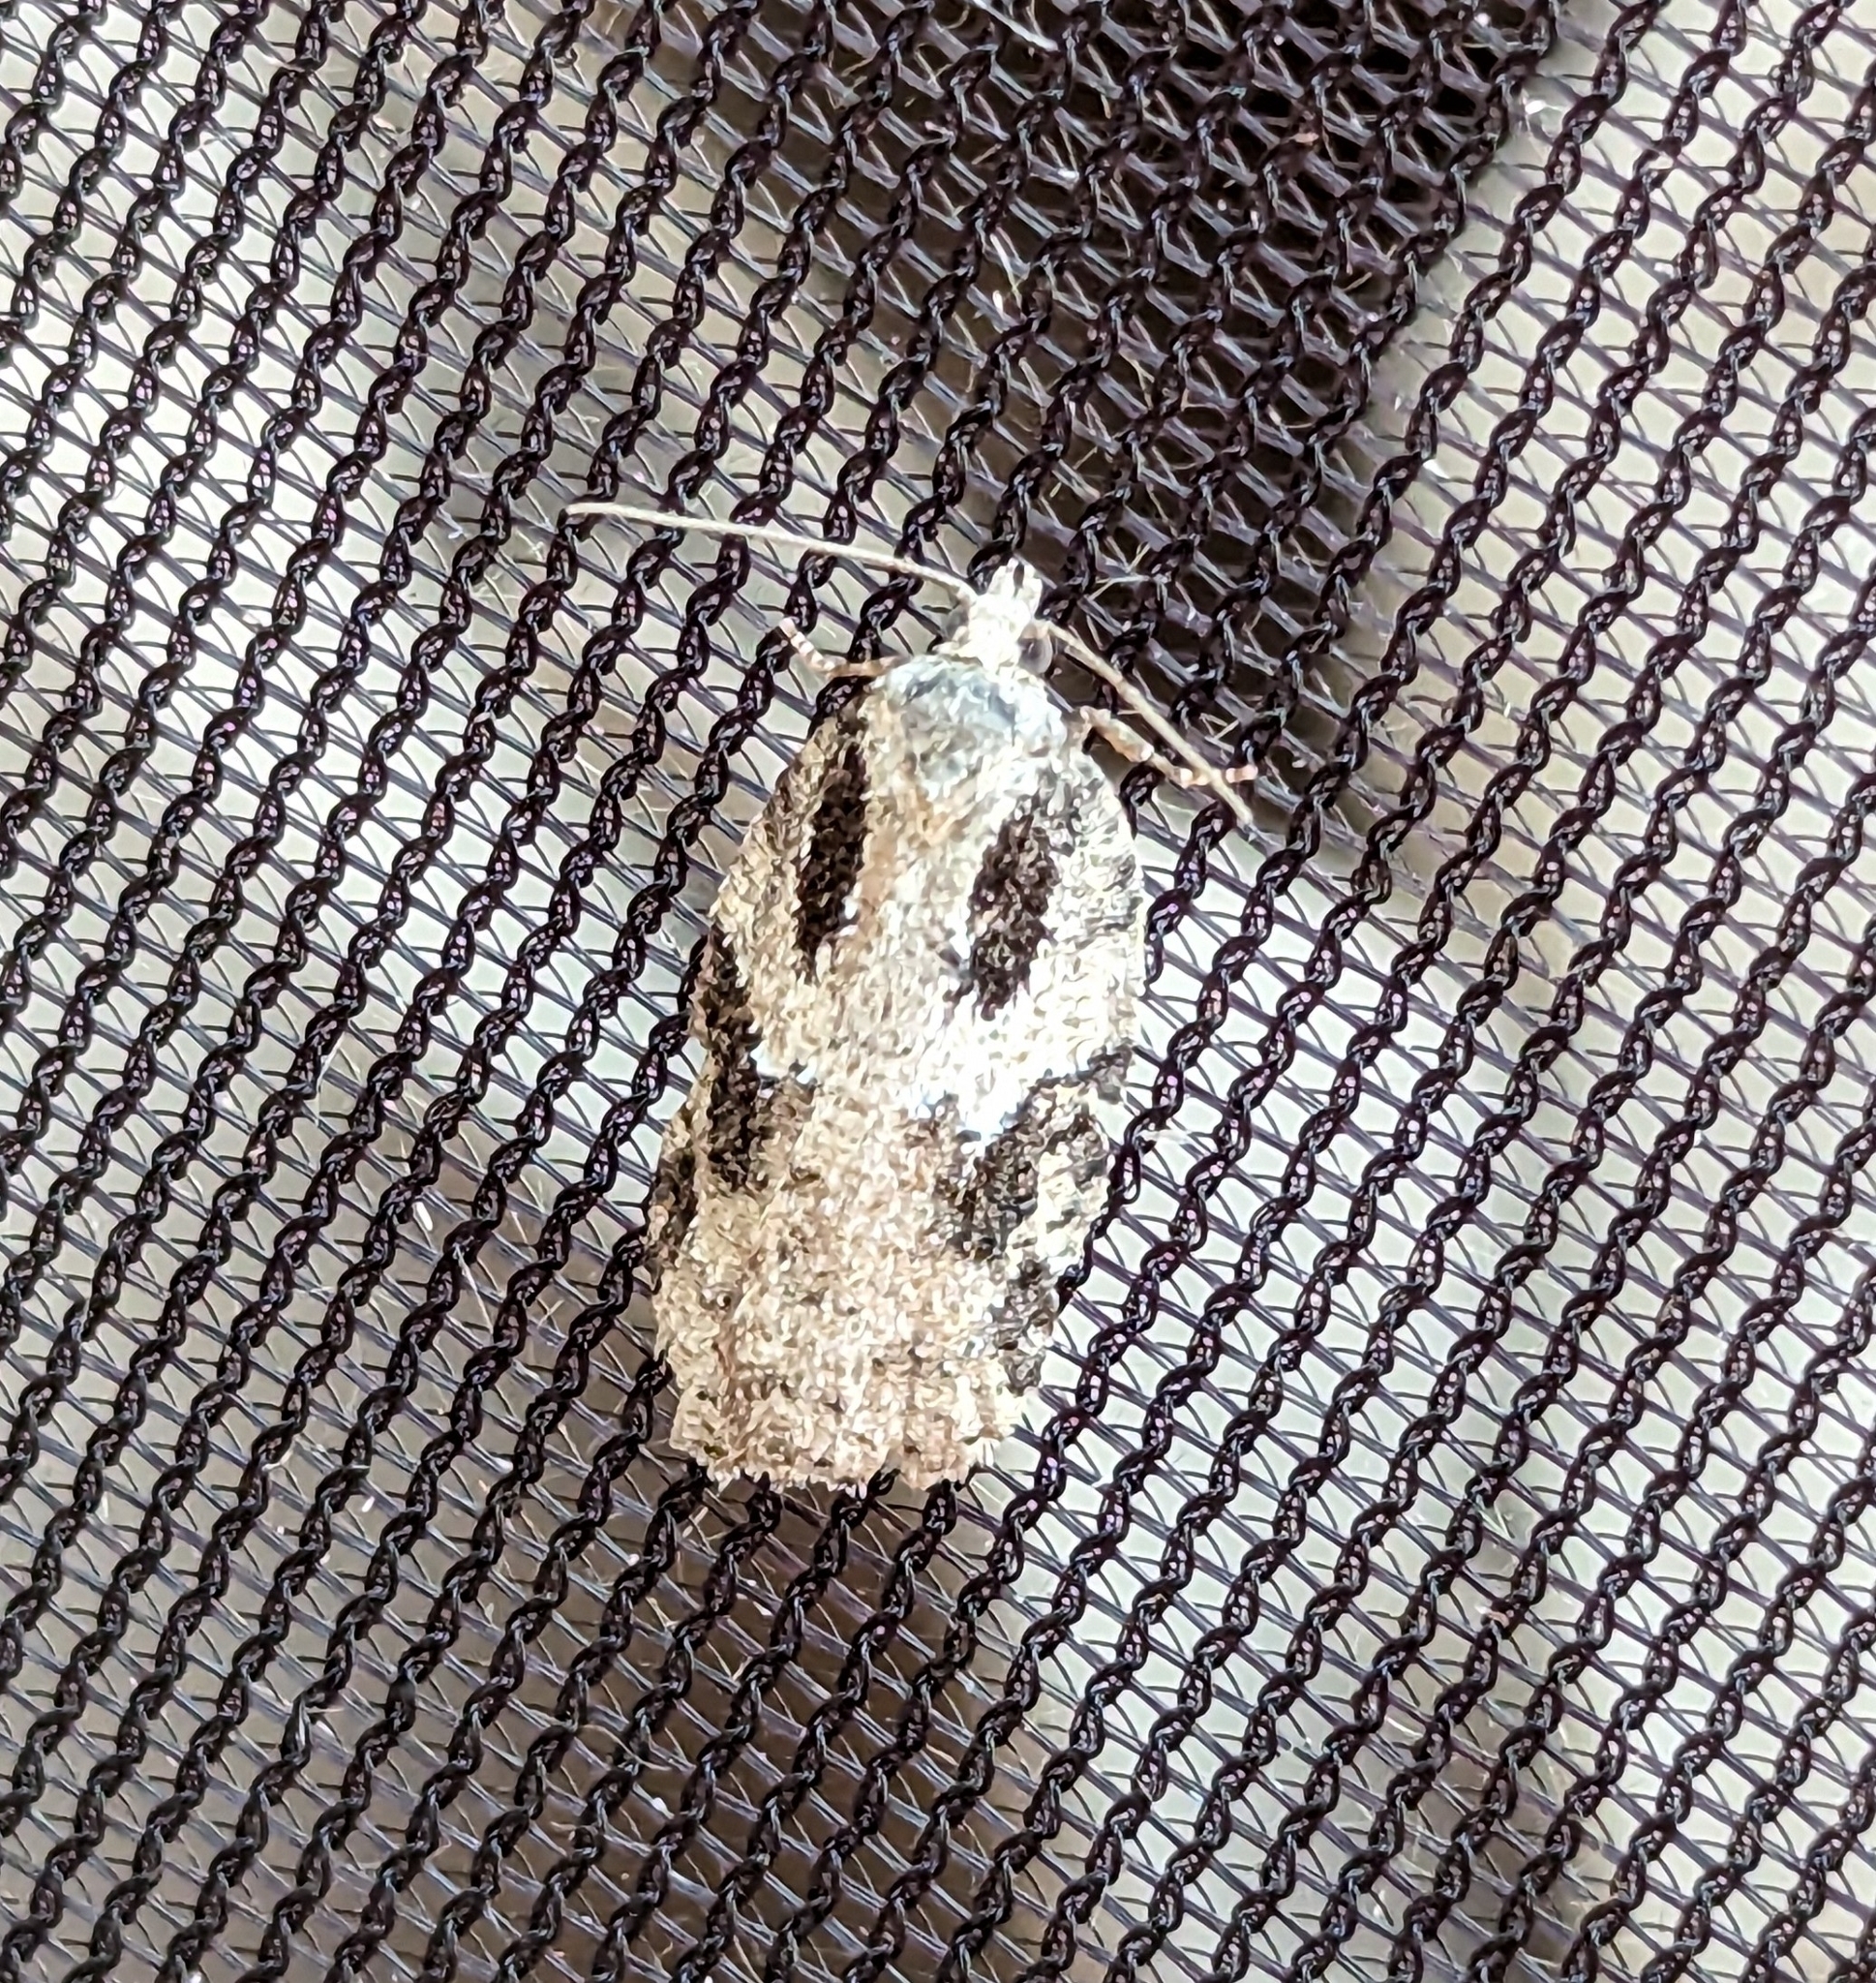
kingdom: Animalia
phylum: Arthropoda
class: Insecta
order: Lepidoptera
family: Tortricidae
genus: Acleris
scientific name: Acleris
